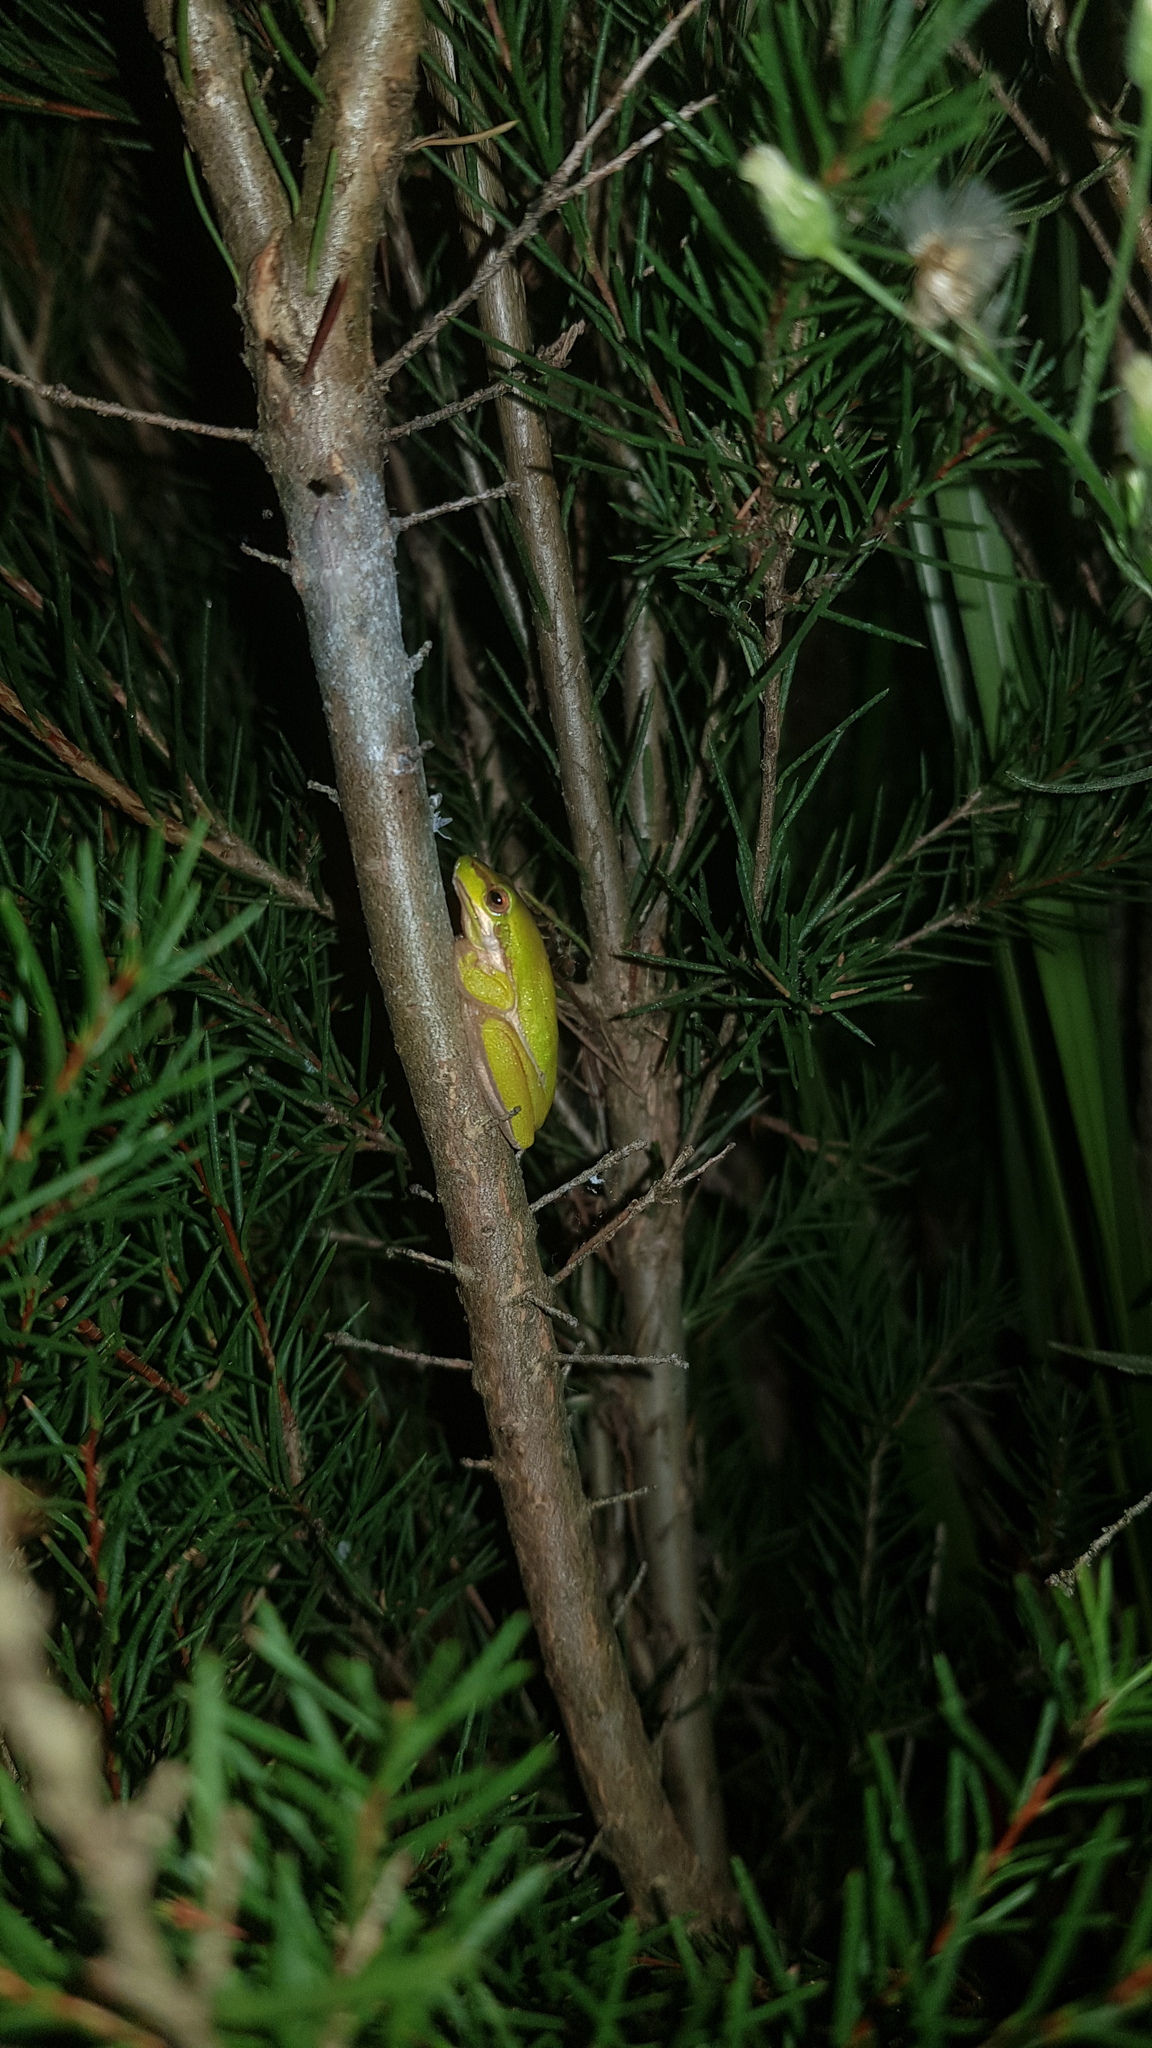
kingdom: Animalia
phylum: Chordata
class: Amphibia
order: Anura
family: Pelodryadidae
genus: Litoria
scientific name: Litoria fallax
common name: Eastern dwarf treefrog
